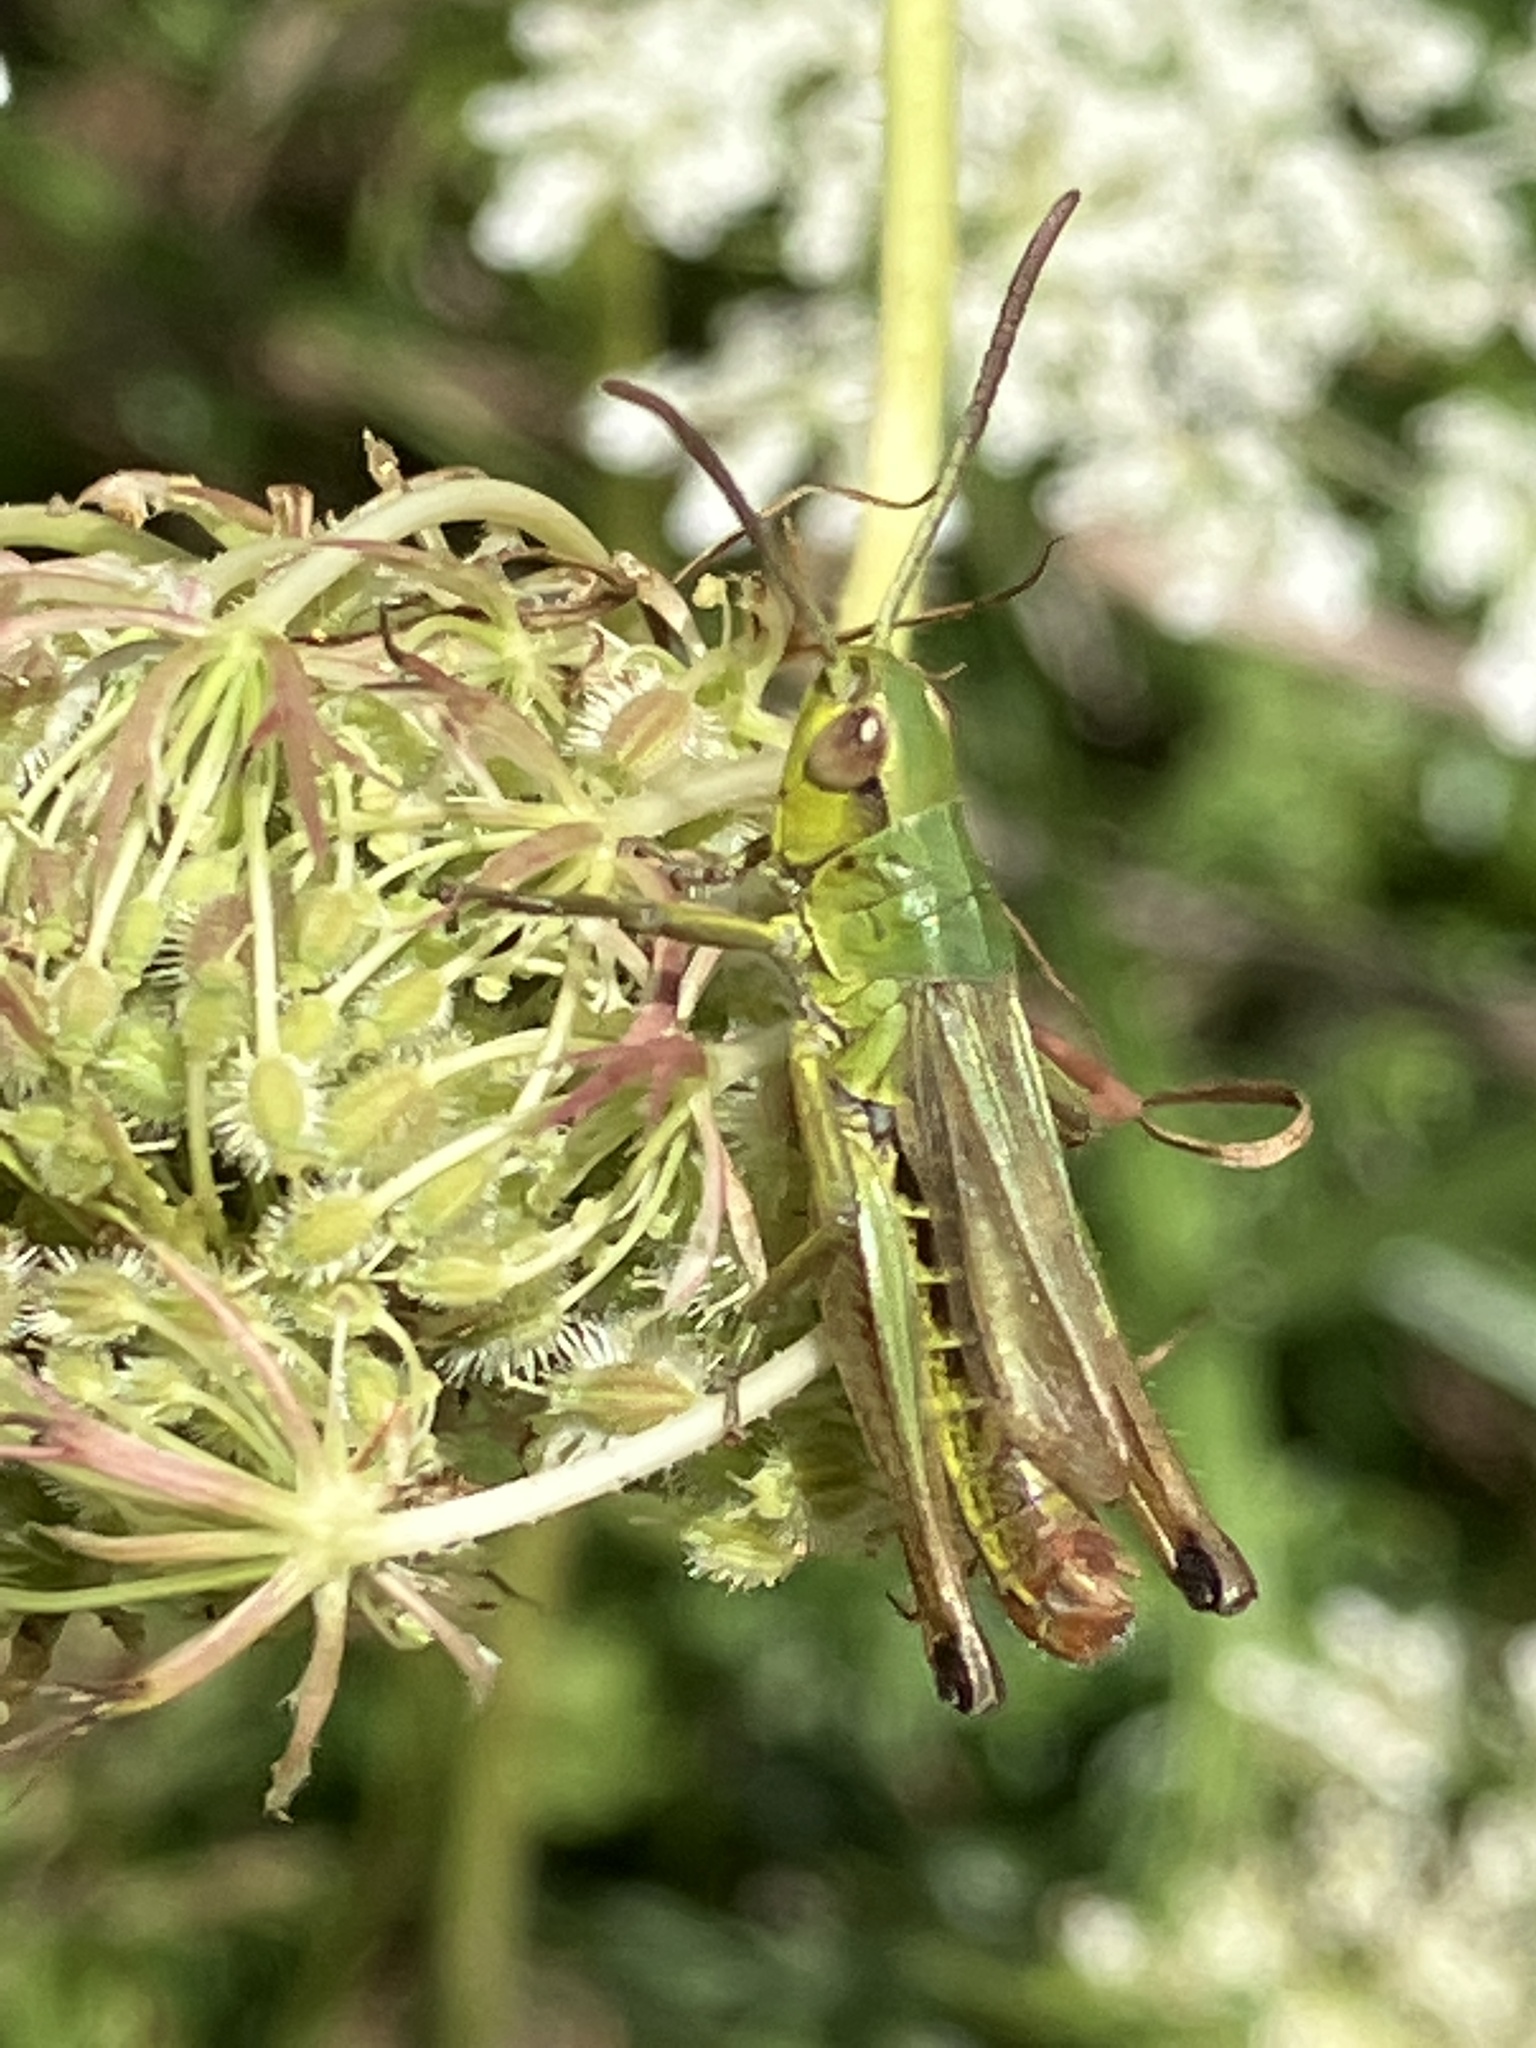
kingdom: Animalia
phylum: Arthropoda
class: Insecta
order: Orthoptera
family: Acrididae
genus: Pseudochorthippus
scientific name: Pseudochorthippus parallelus
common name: Meadow grasshopper
